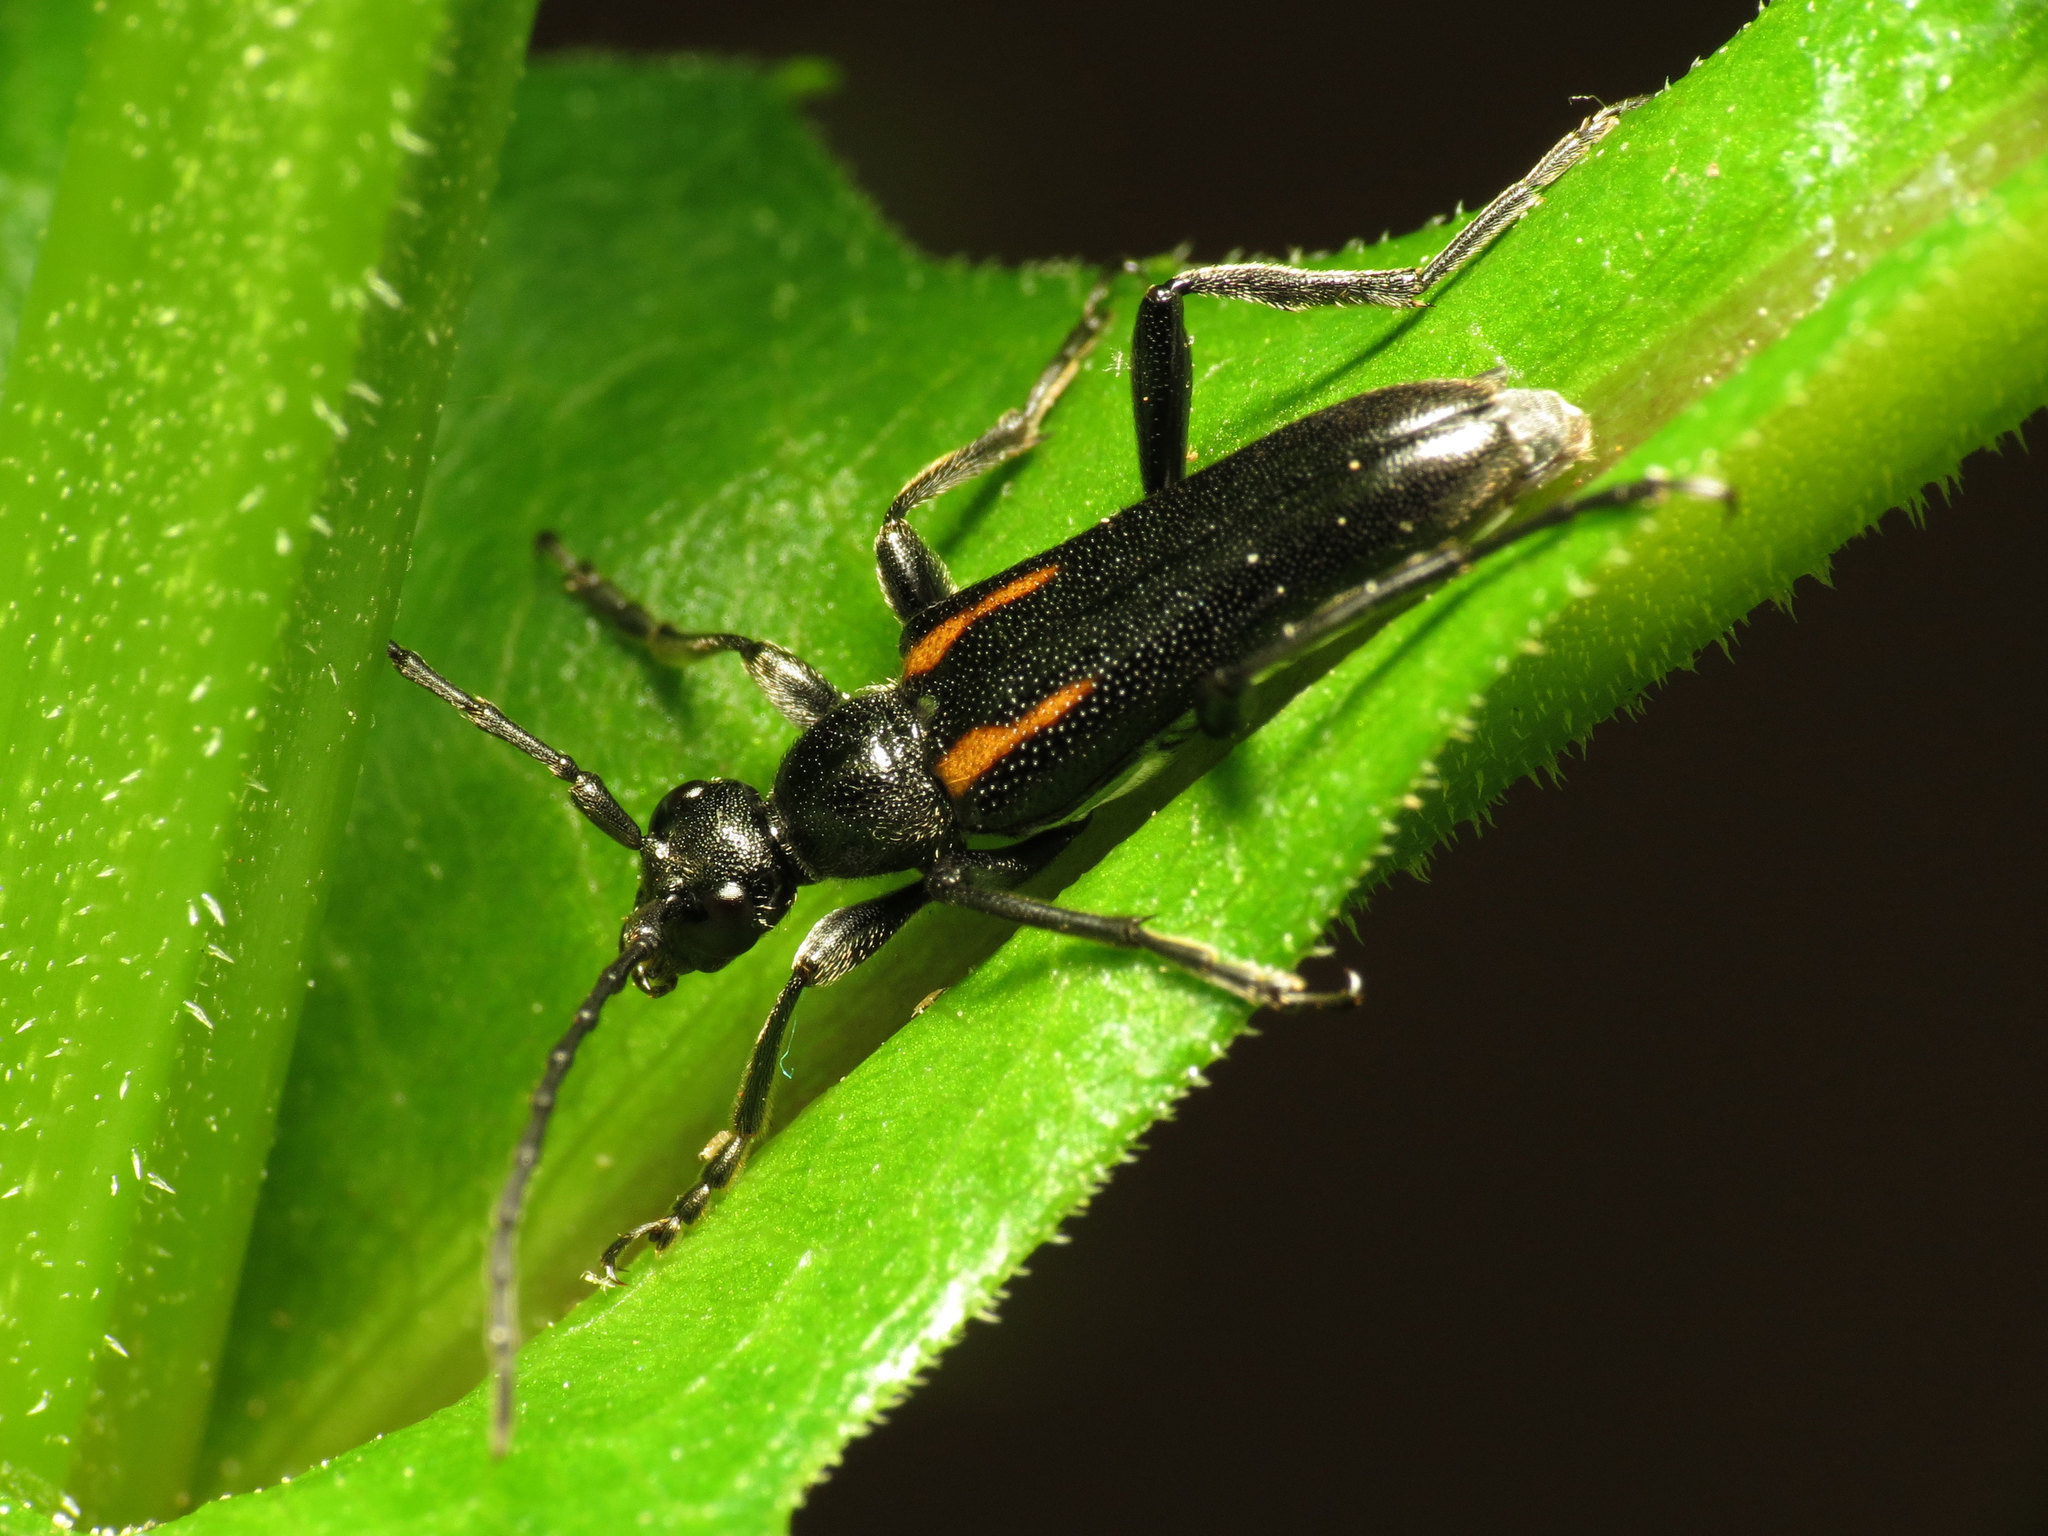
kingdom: Animalia
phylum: Arthropoda
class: Insecta
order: Coleoptera
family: Cerambycidae
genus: Strangalepta
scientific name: Strangalepta abbreviata
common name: Strangalepta flower longhorn beetle
